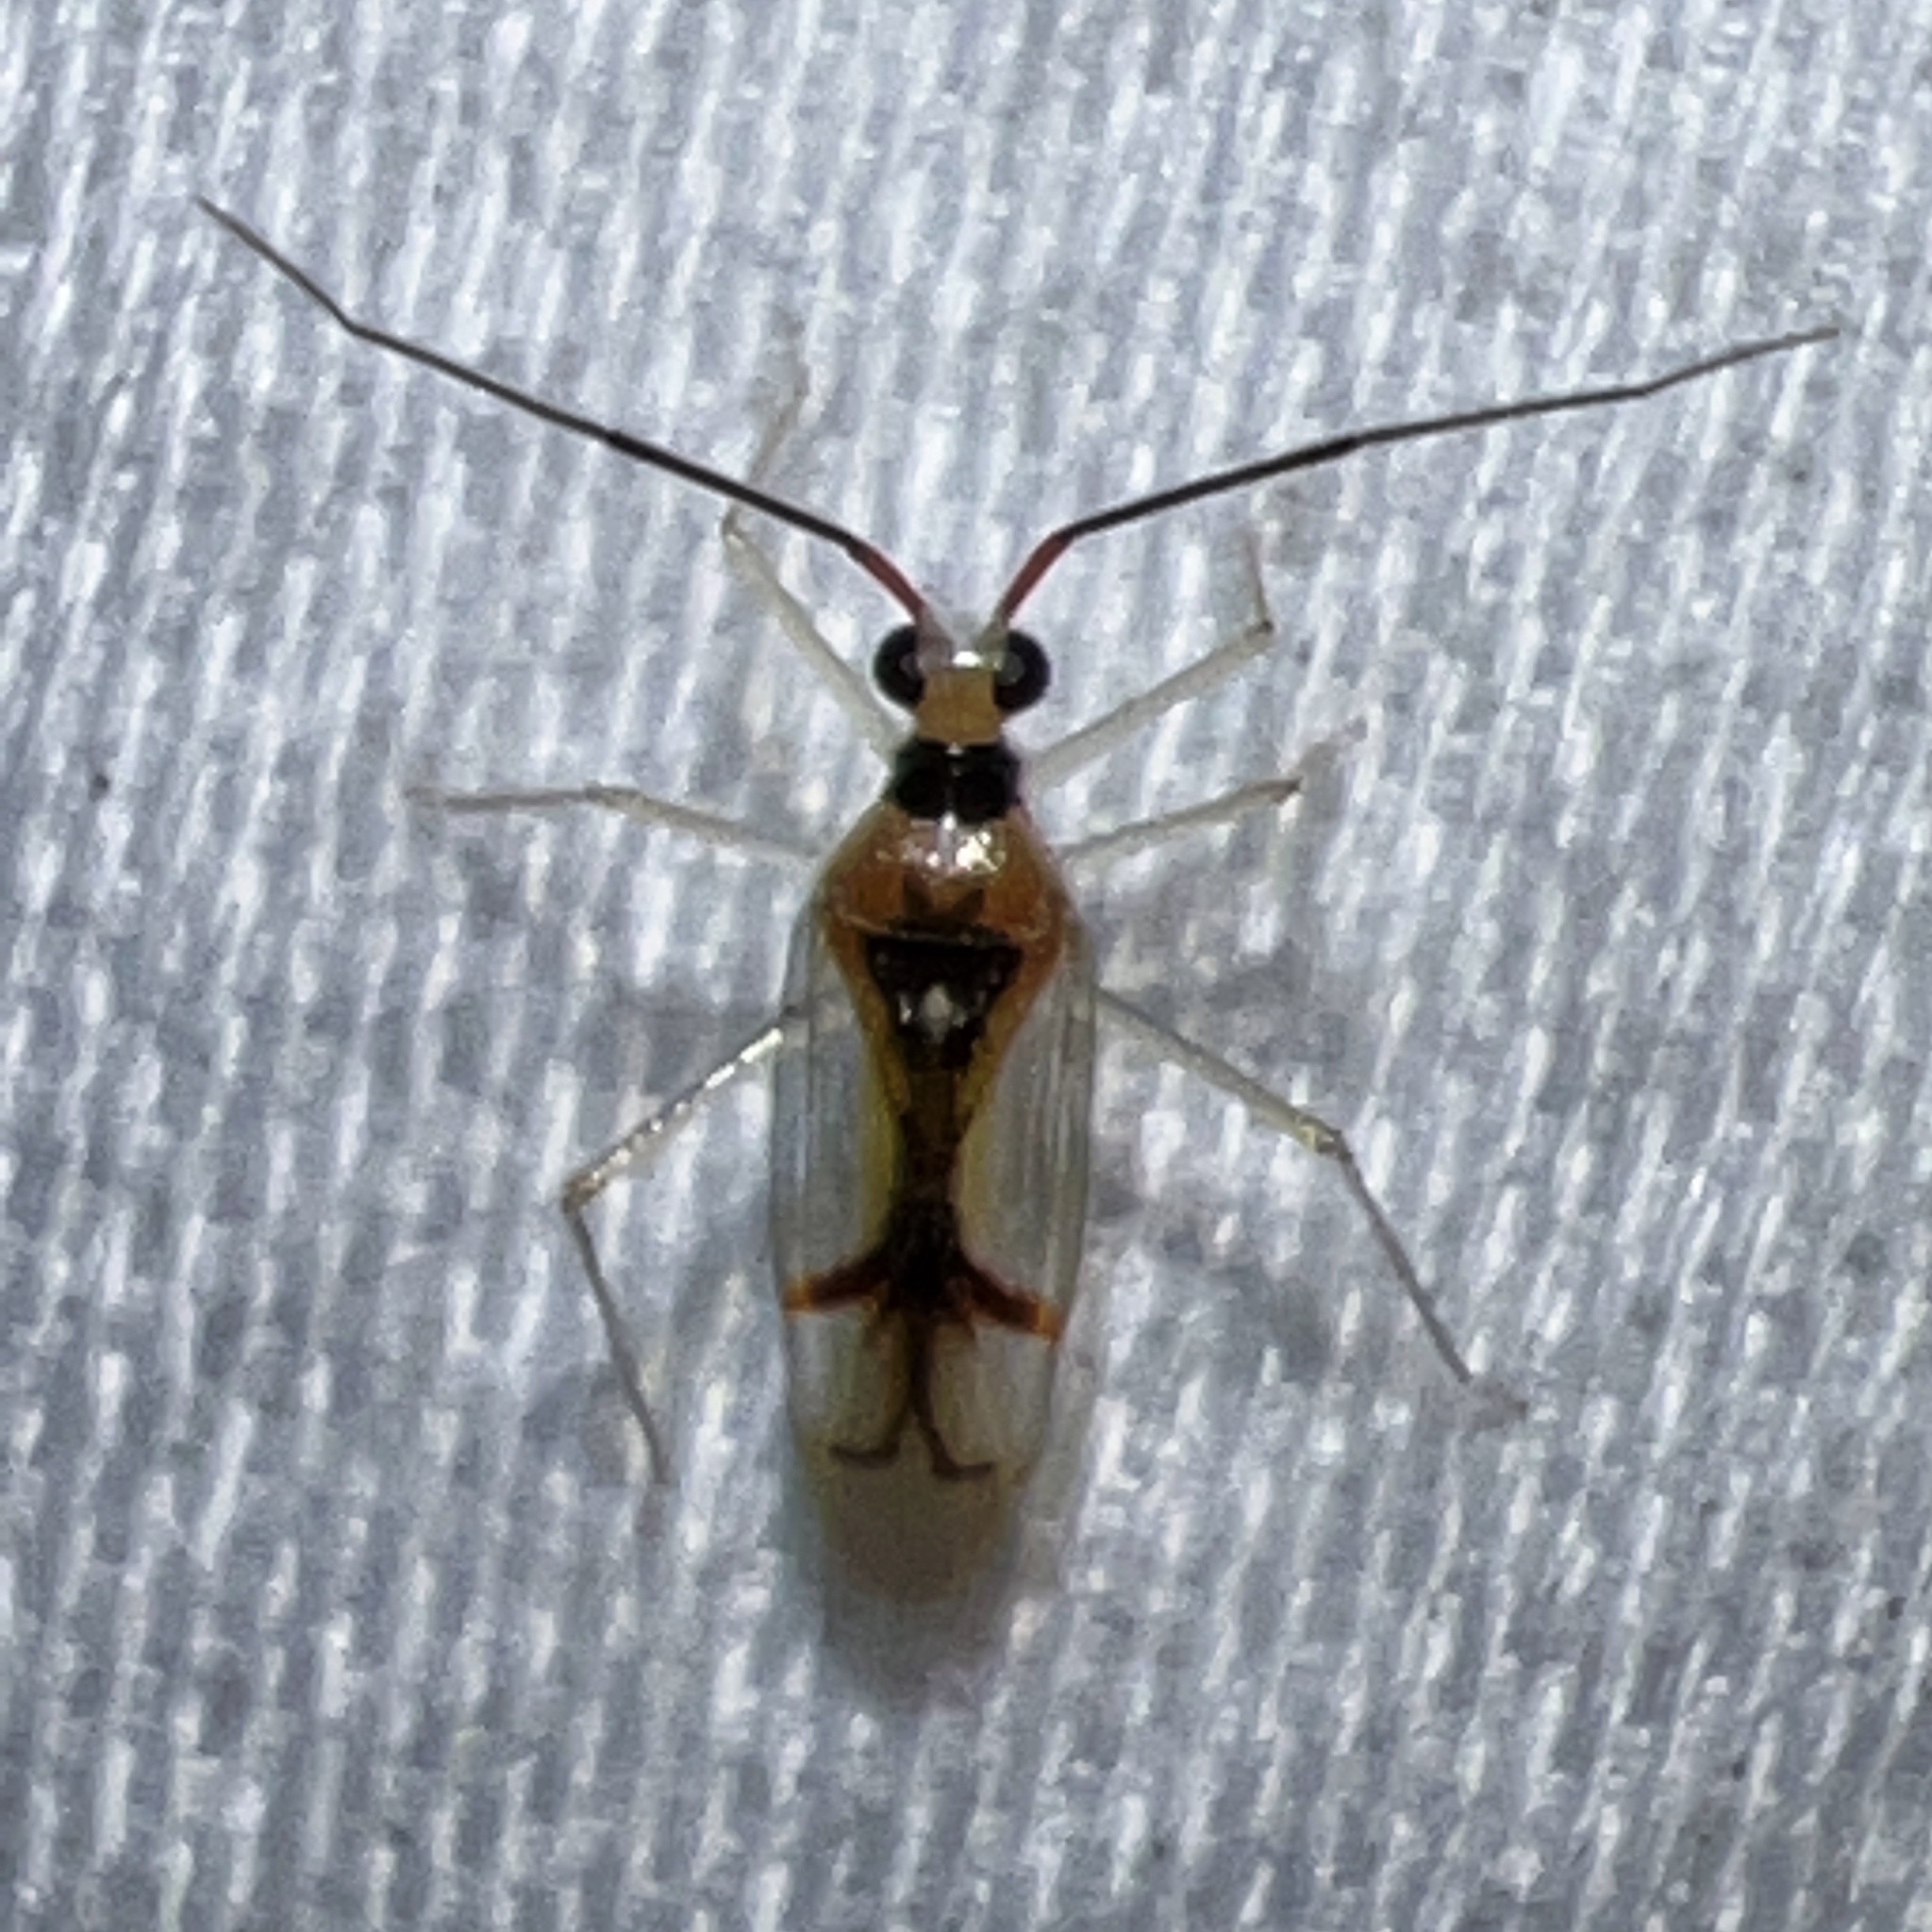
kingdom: Animalia
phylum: Arthropoda
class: Insecta
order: Hemiptera
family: Miridae
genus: Hyaliodes
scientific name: Hyaliodes harti
